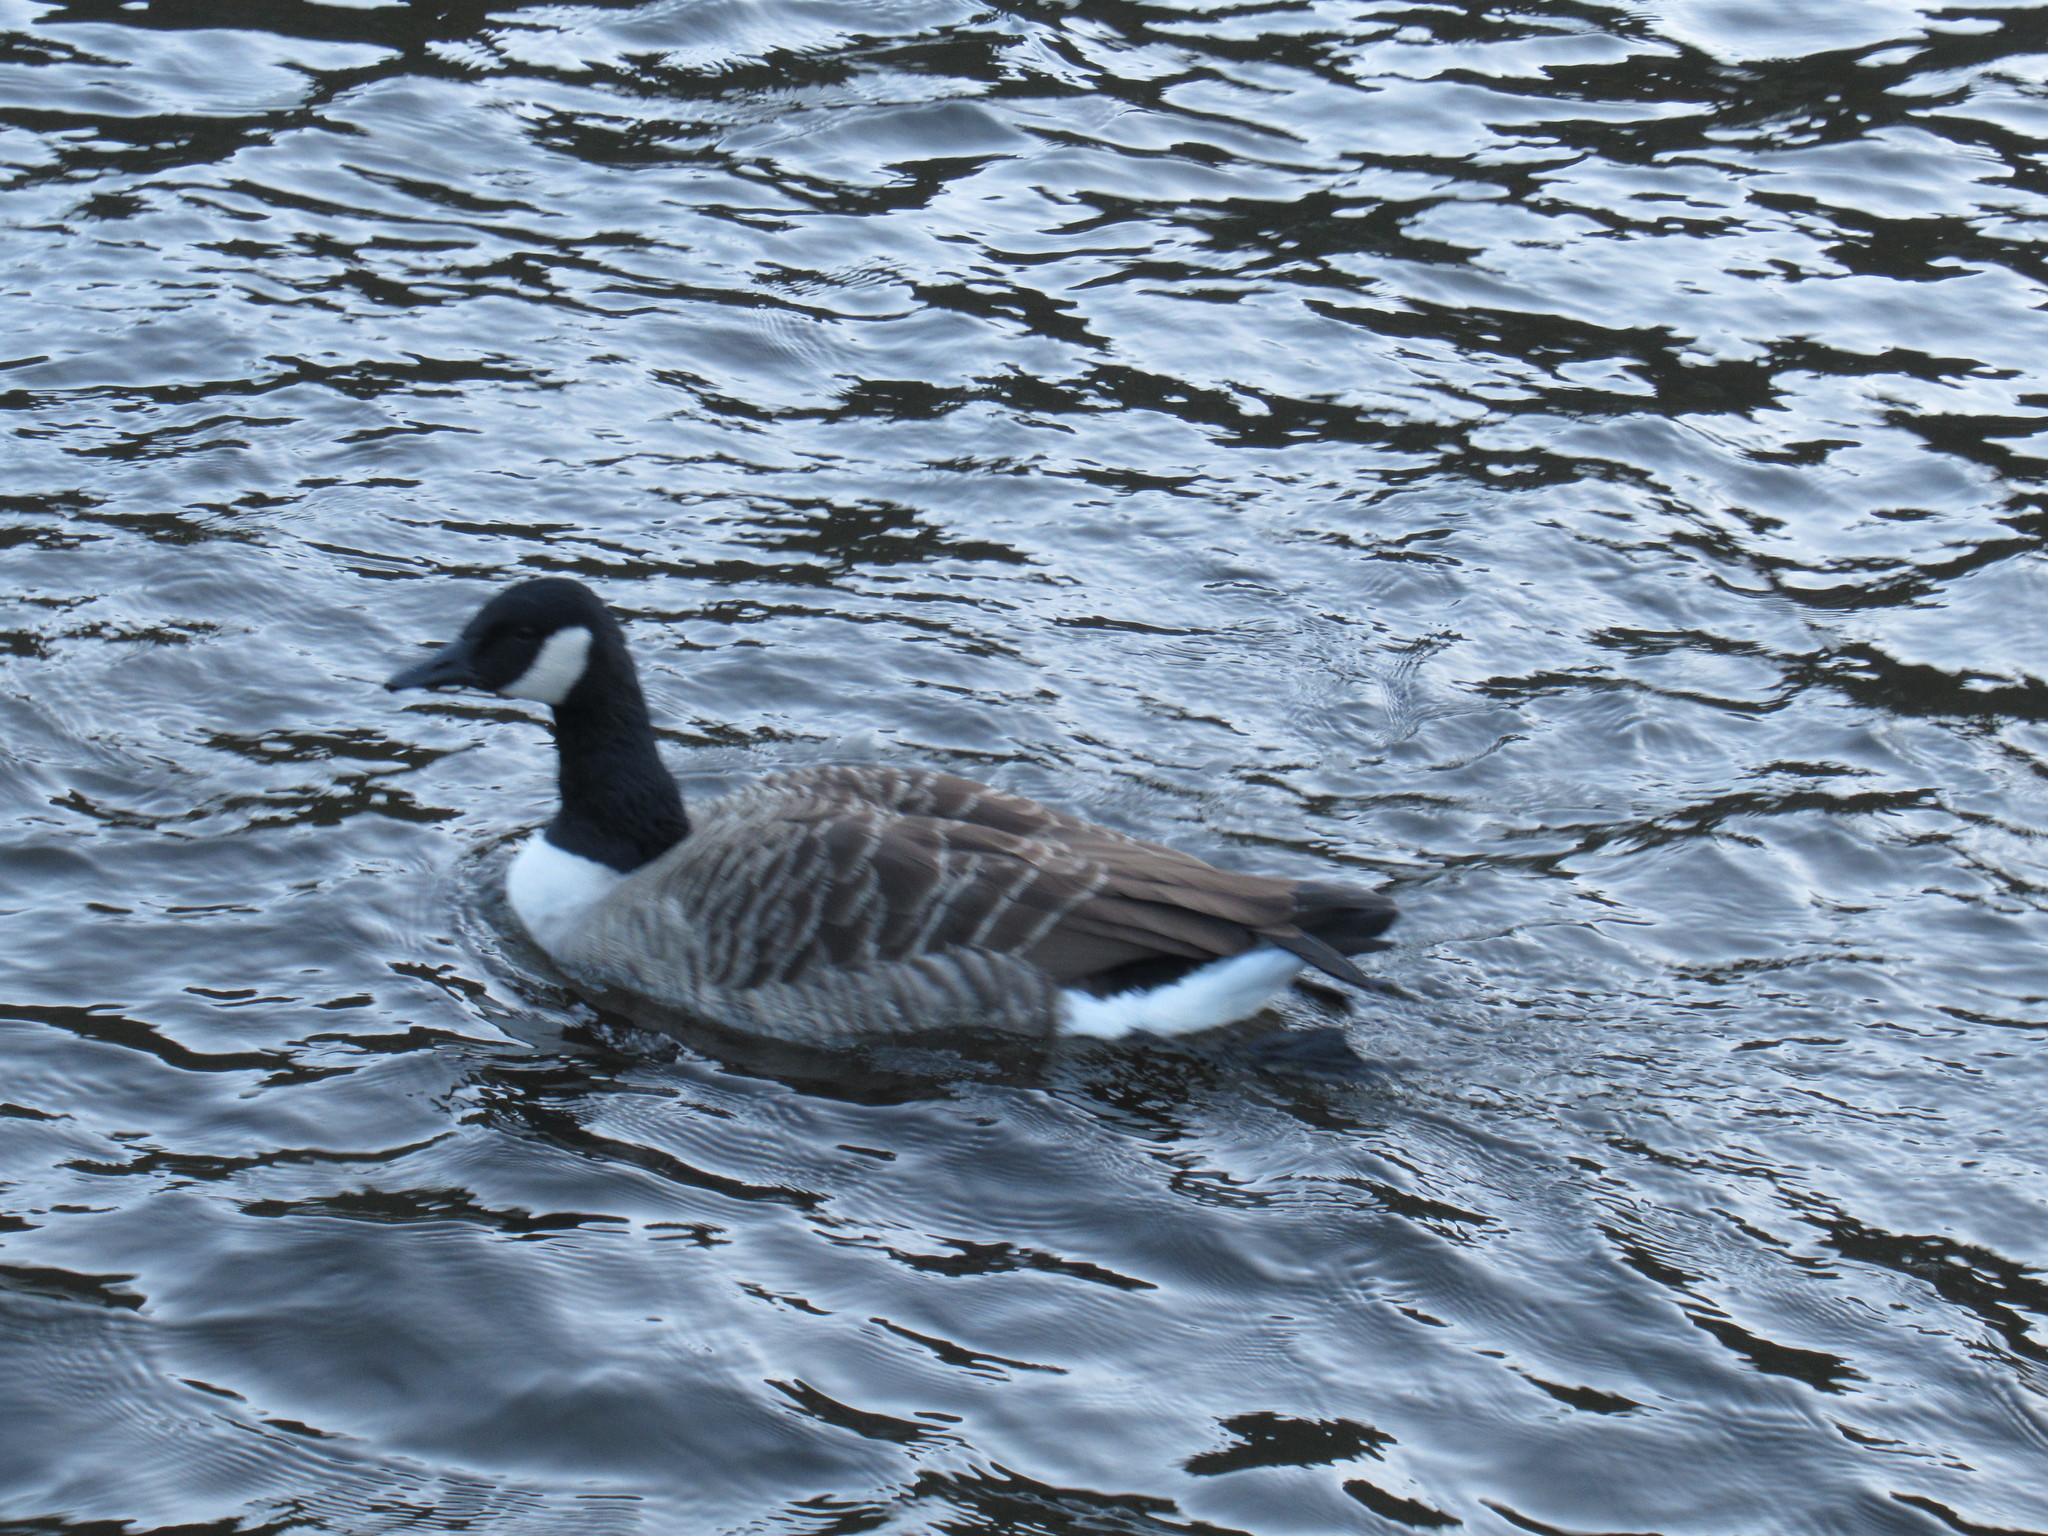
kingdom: Animalia
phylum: Chordata
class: Aves
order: Anseriformes
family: Anatidae
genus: Branta
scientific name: Branta canadensis
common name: Canada goose
